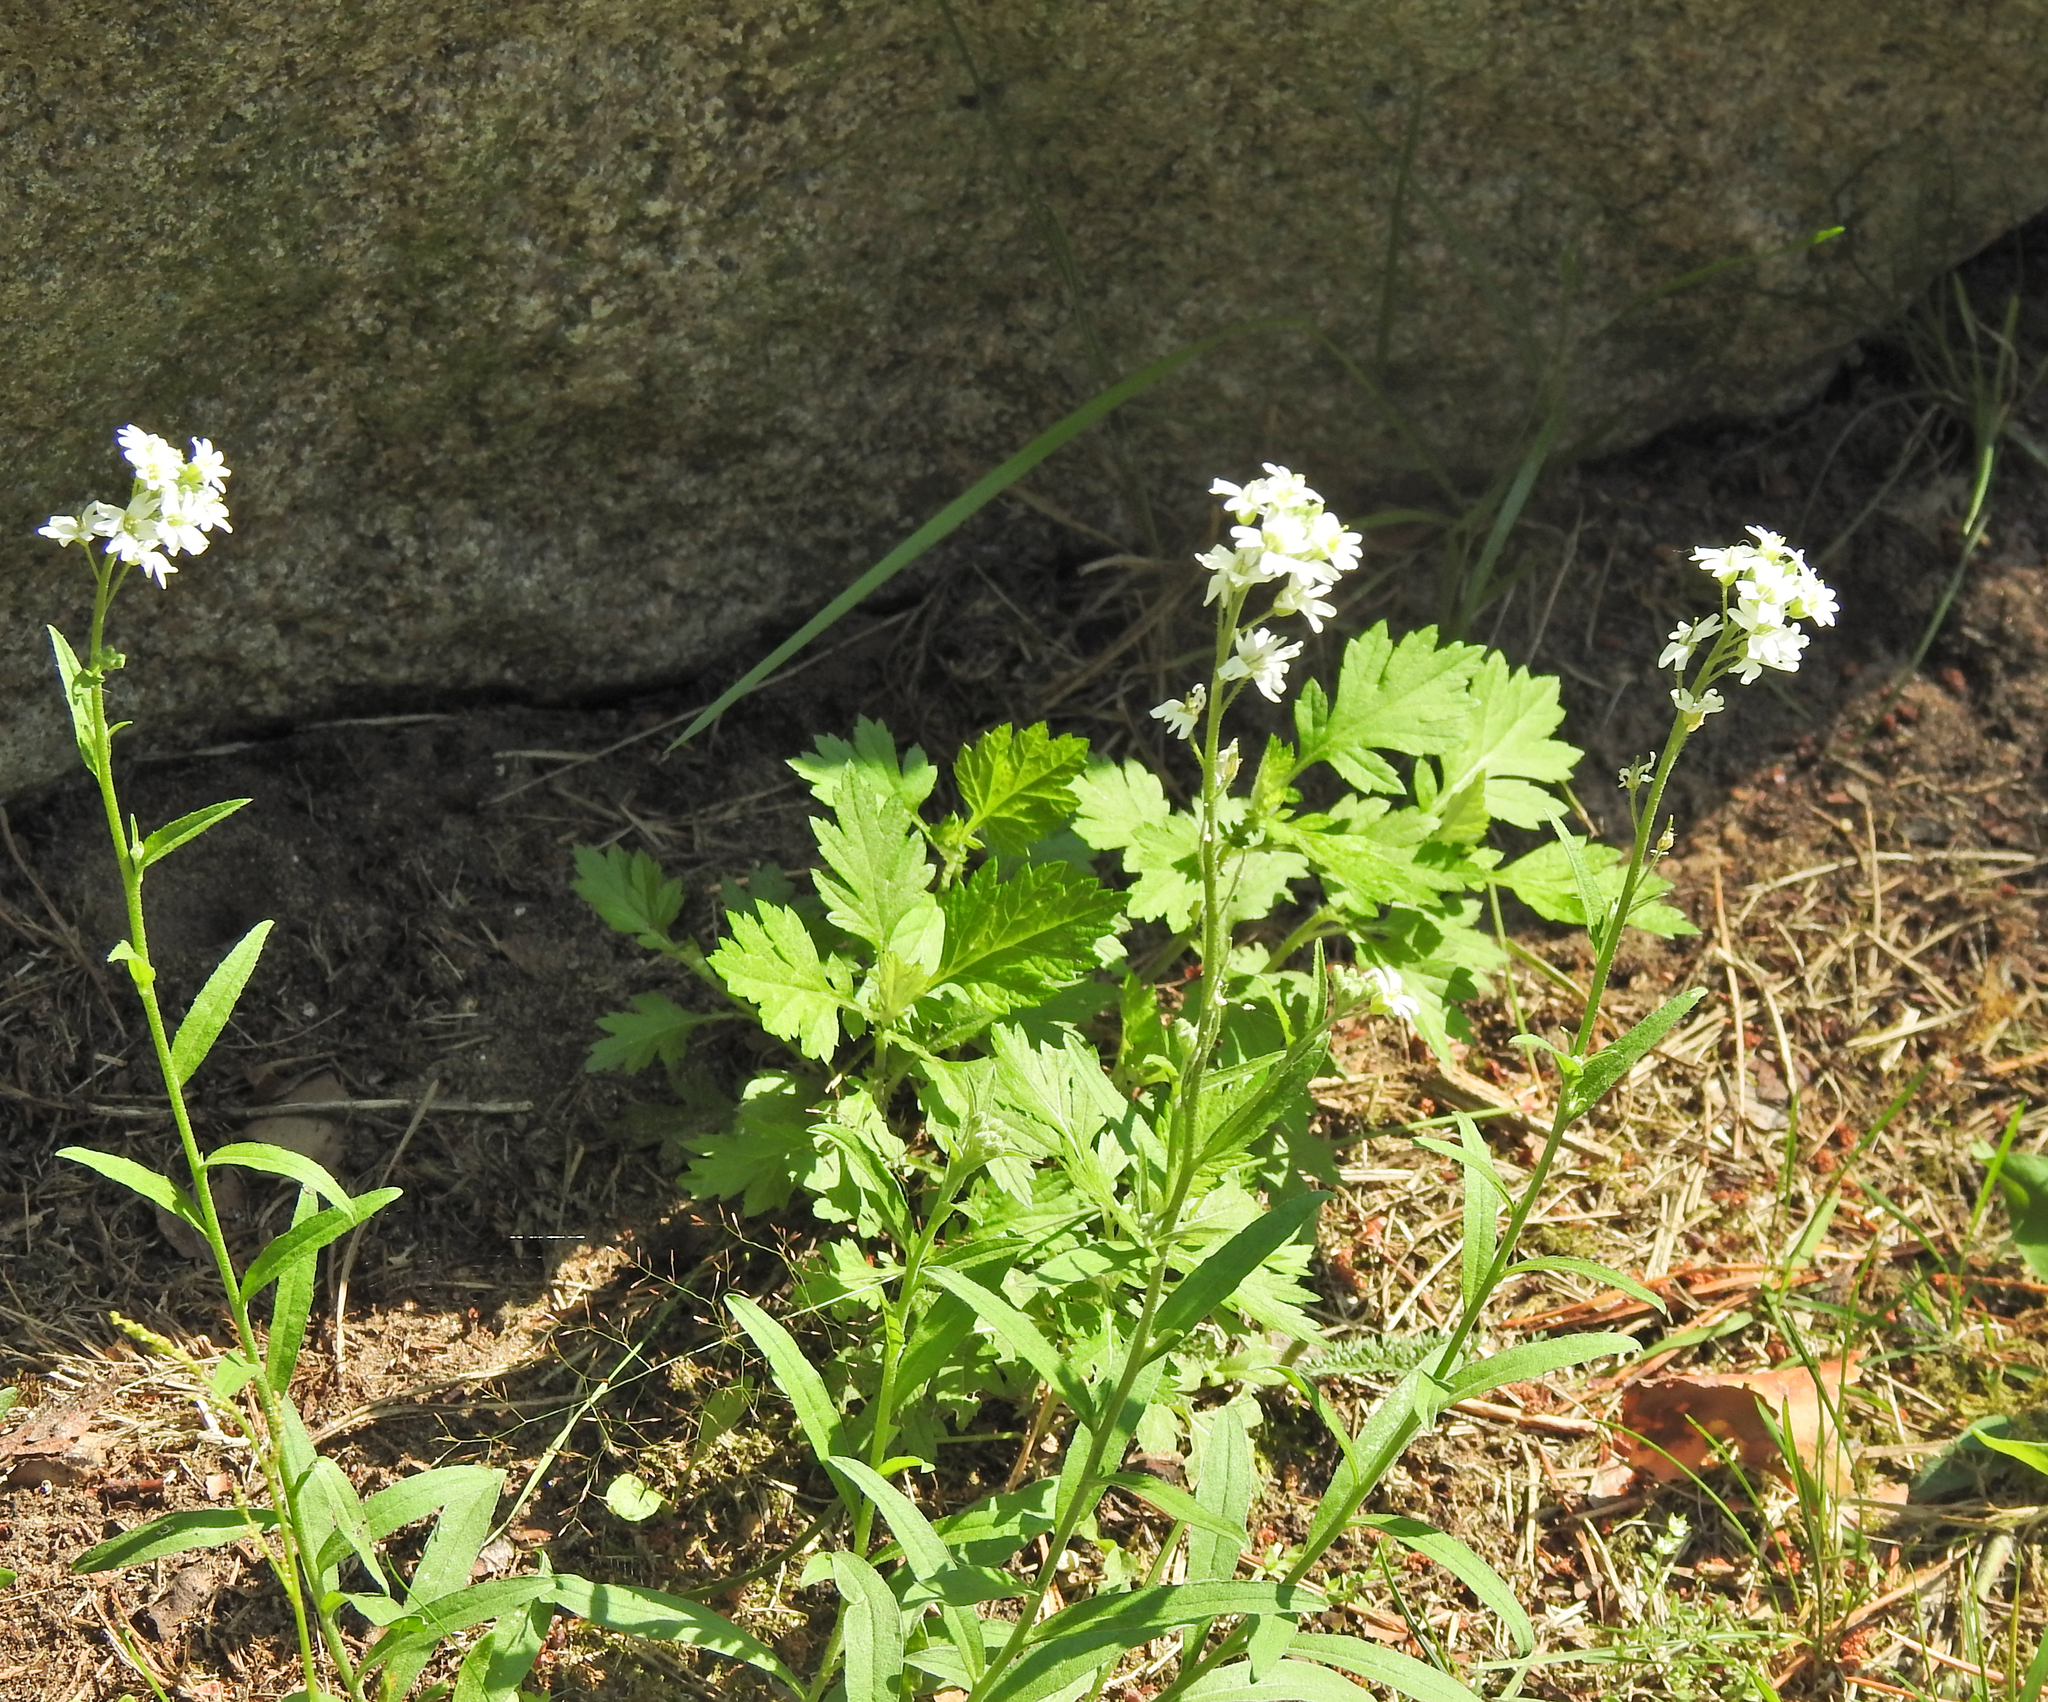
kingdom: Plantae
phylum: Tracheophyta
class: Magnoliopsida
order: Brassicales
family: Brassicaceae
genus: Berteroa
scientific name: Berteroa incana
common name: Hoary alison
